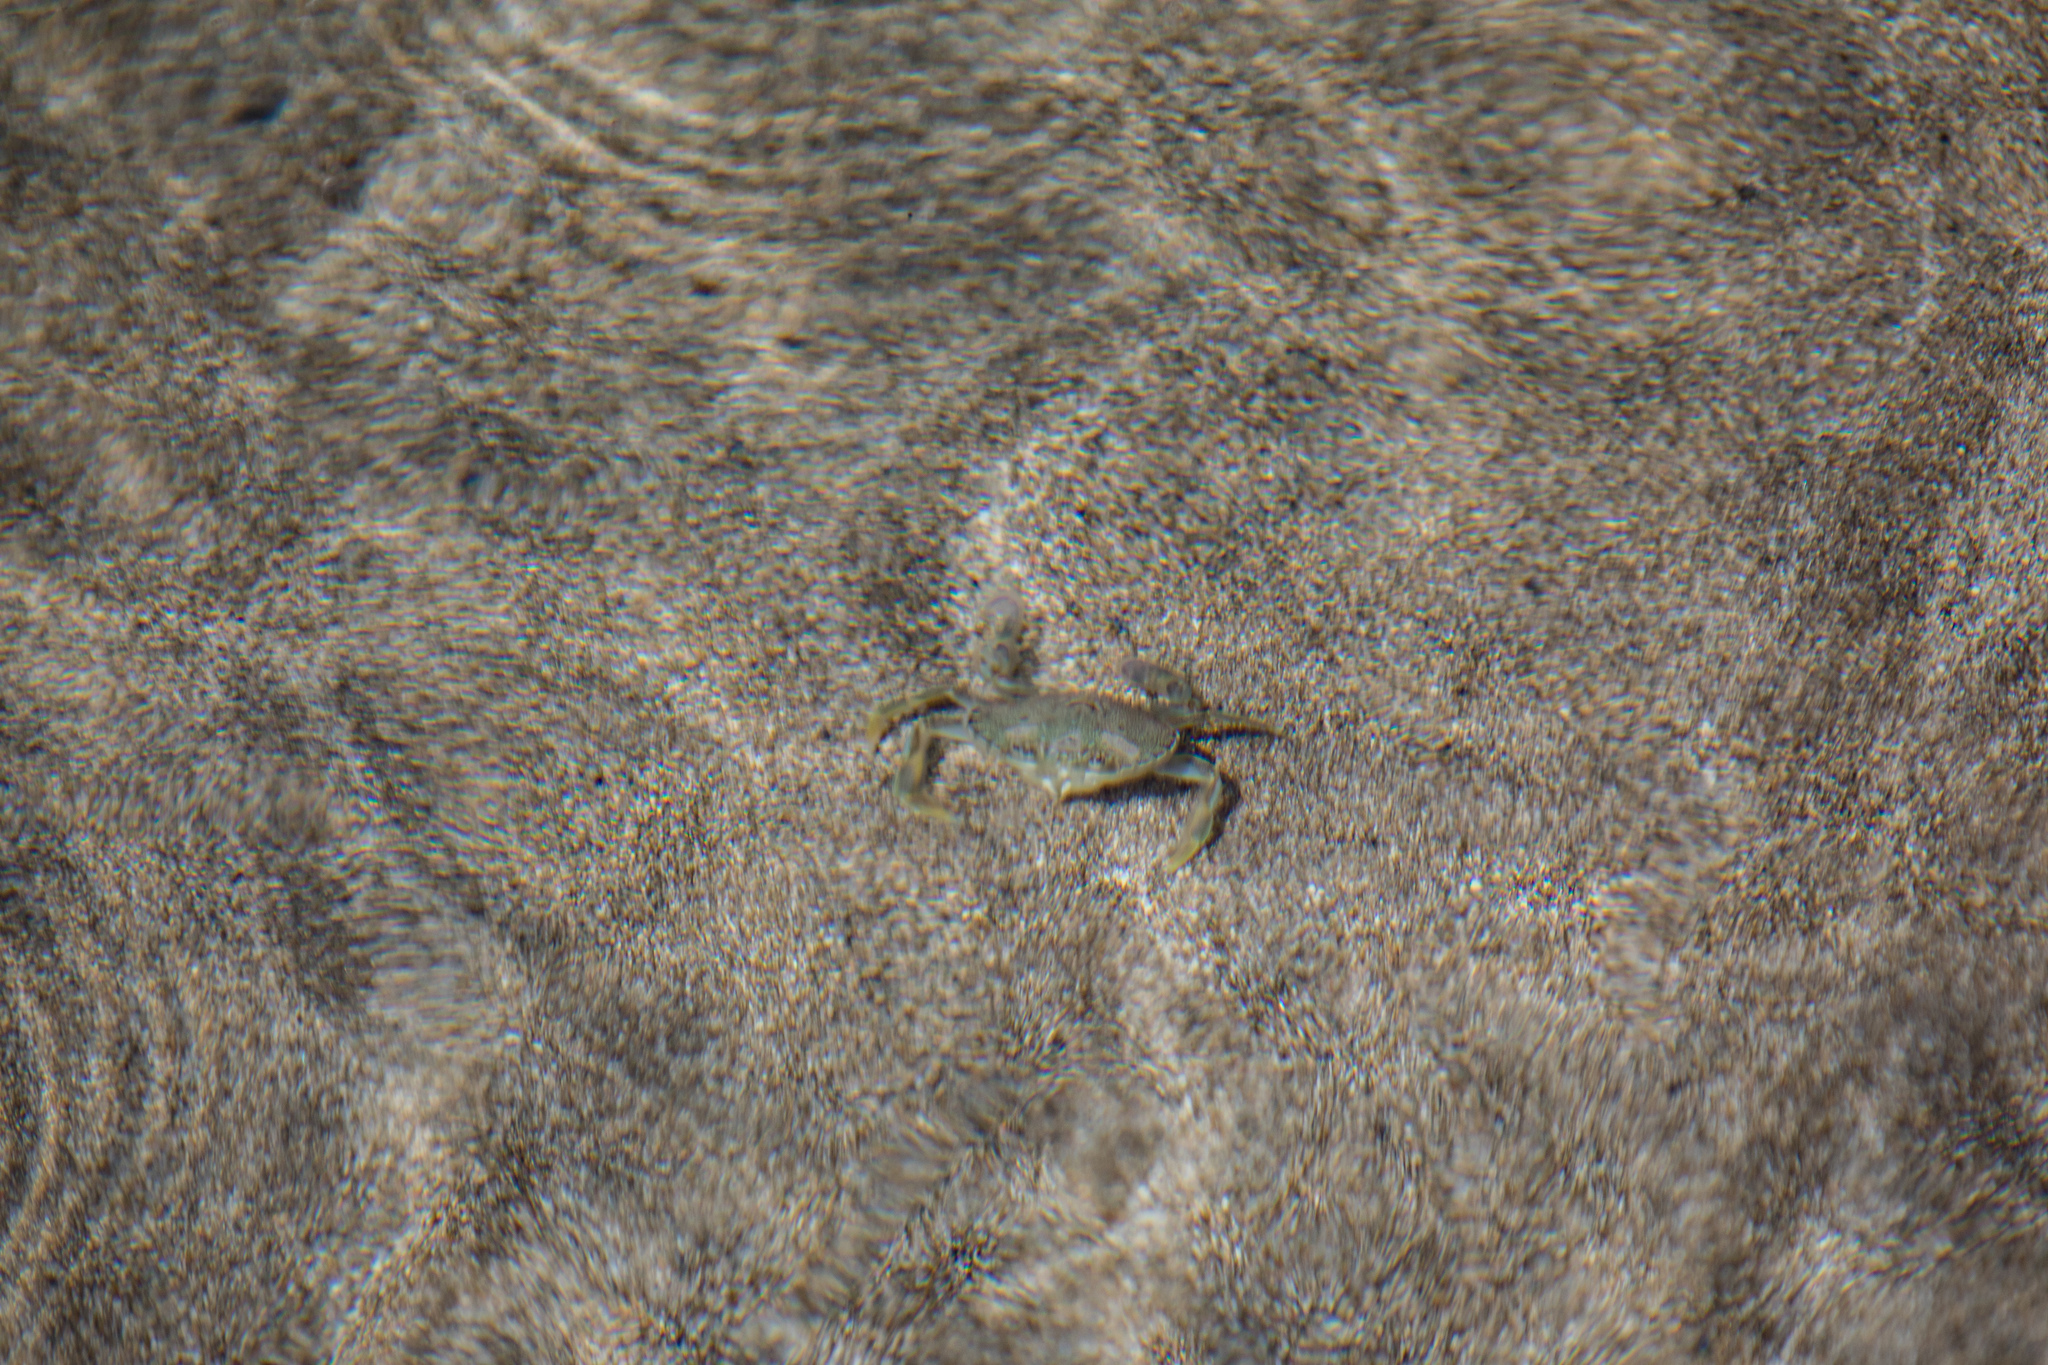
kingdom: Animalia
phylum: Arthropoda
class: Malacostraca
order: Decapoda
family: Ovalipidae
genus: Ovalipes
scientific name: Ovalipes catharus
